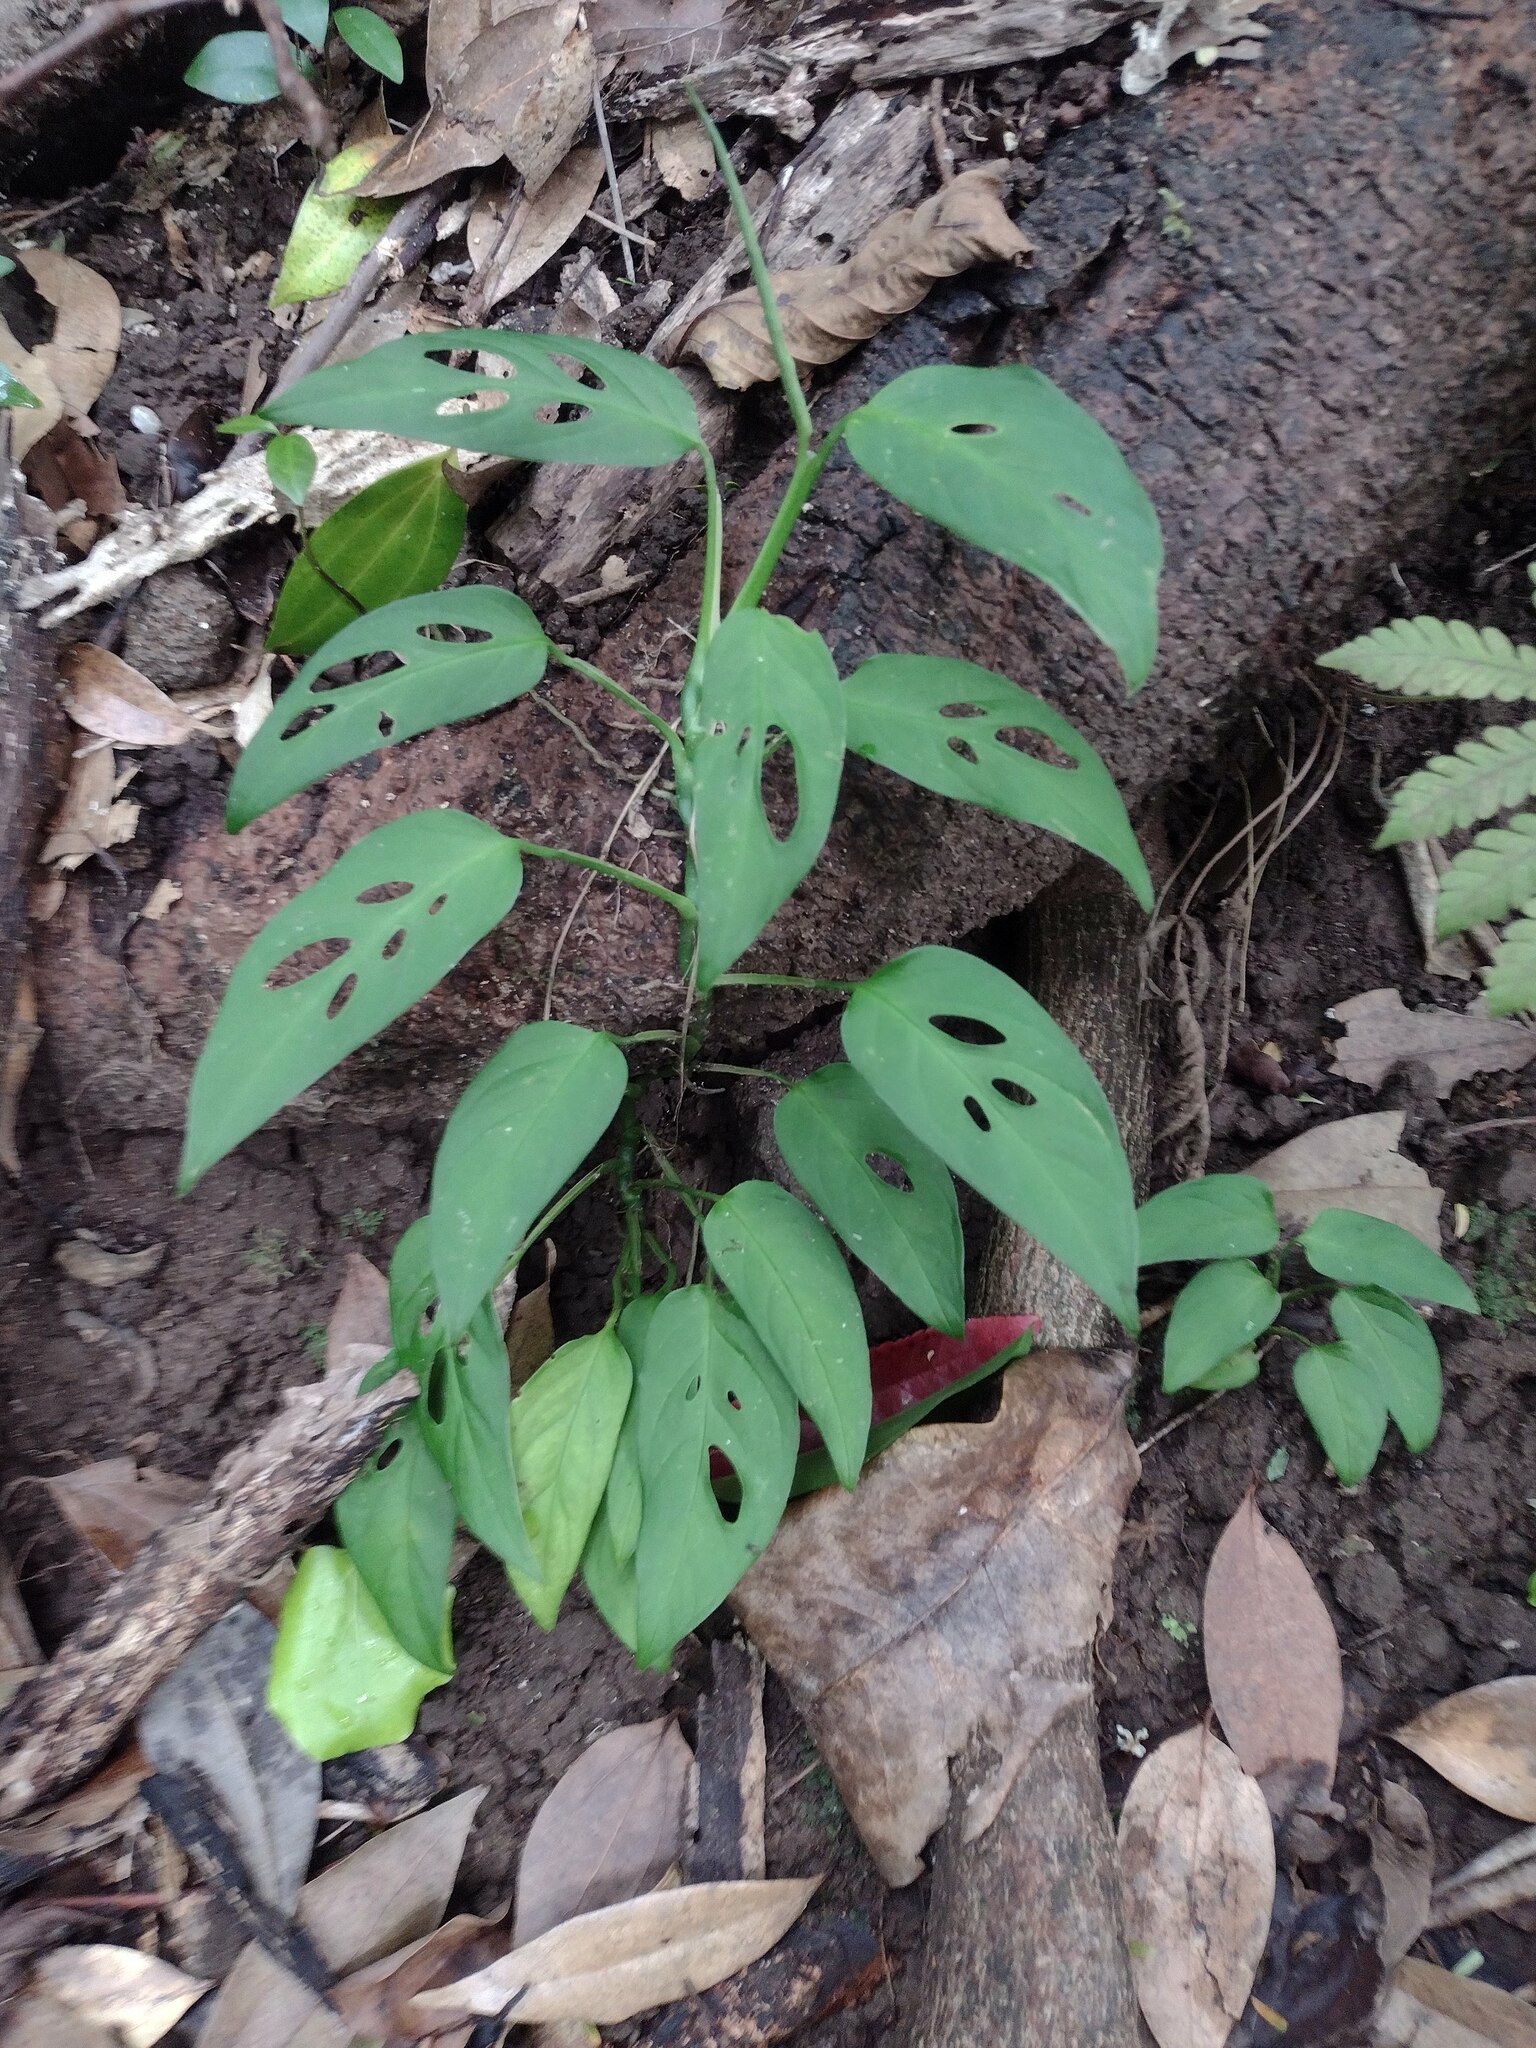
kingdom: Plantae
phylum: Tracheophyta
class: Liliopsida
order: Alismatales
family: Araceae
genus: Monstera
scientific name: Monstera adansonii
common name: Tarovine
